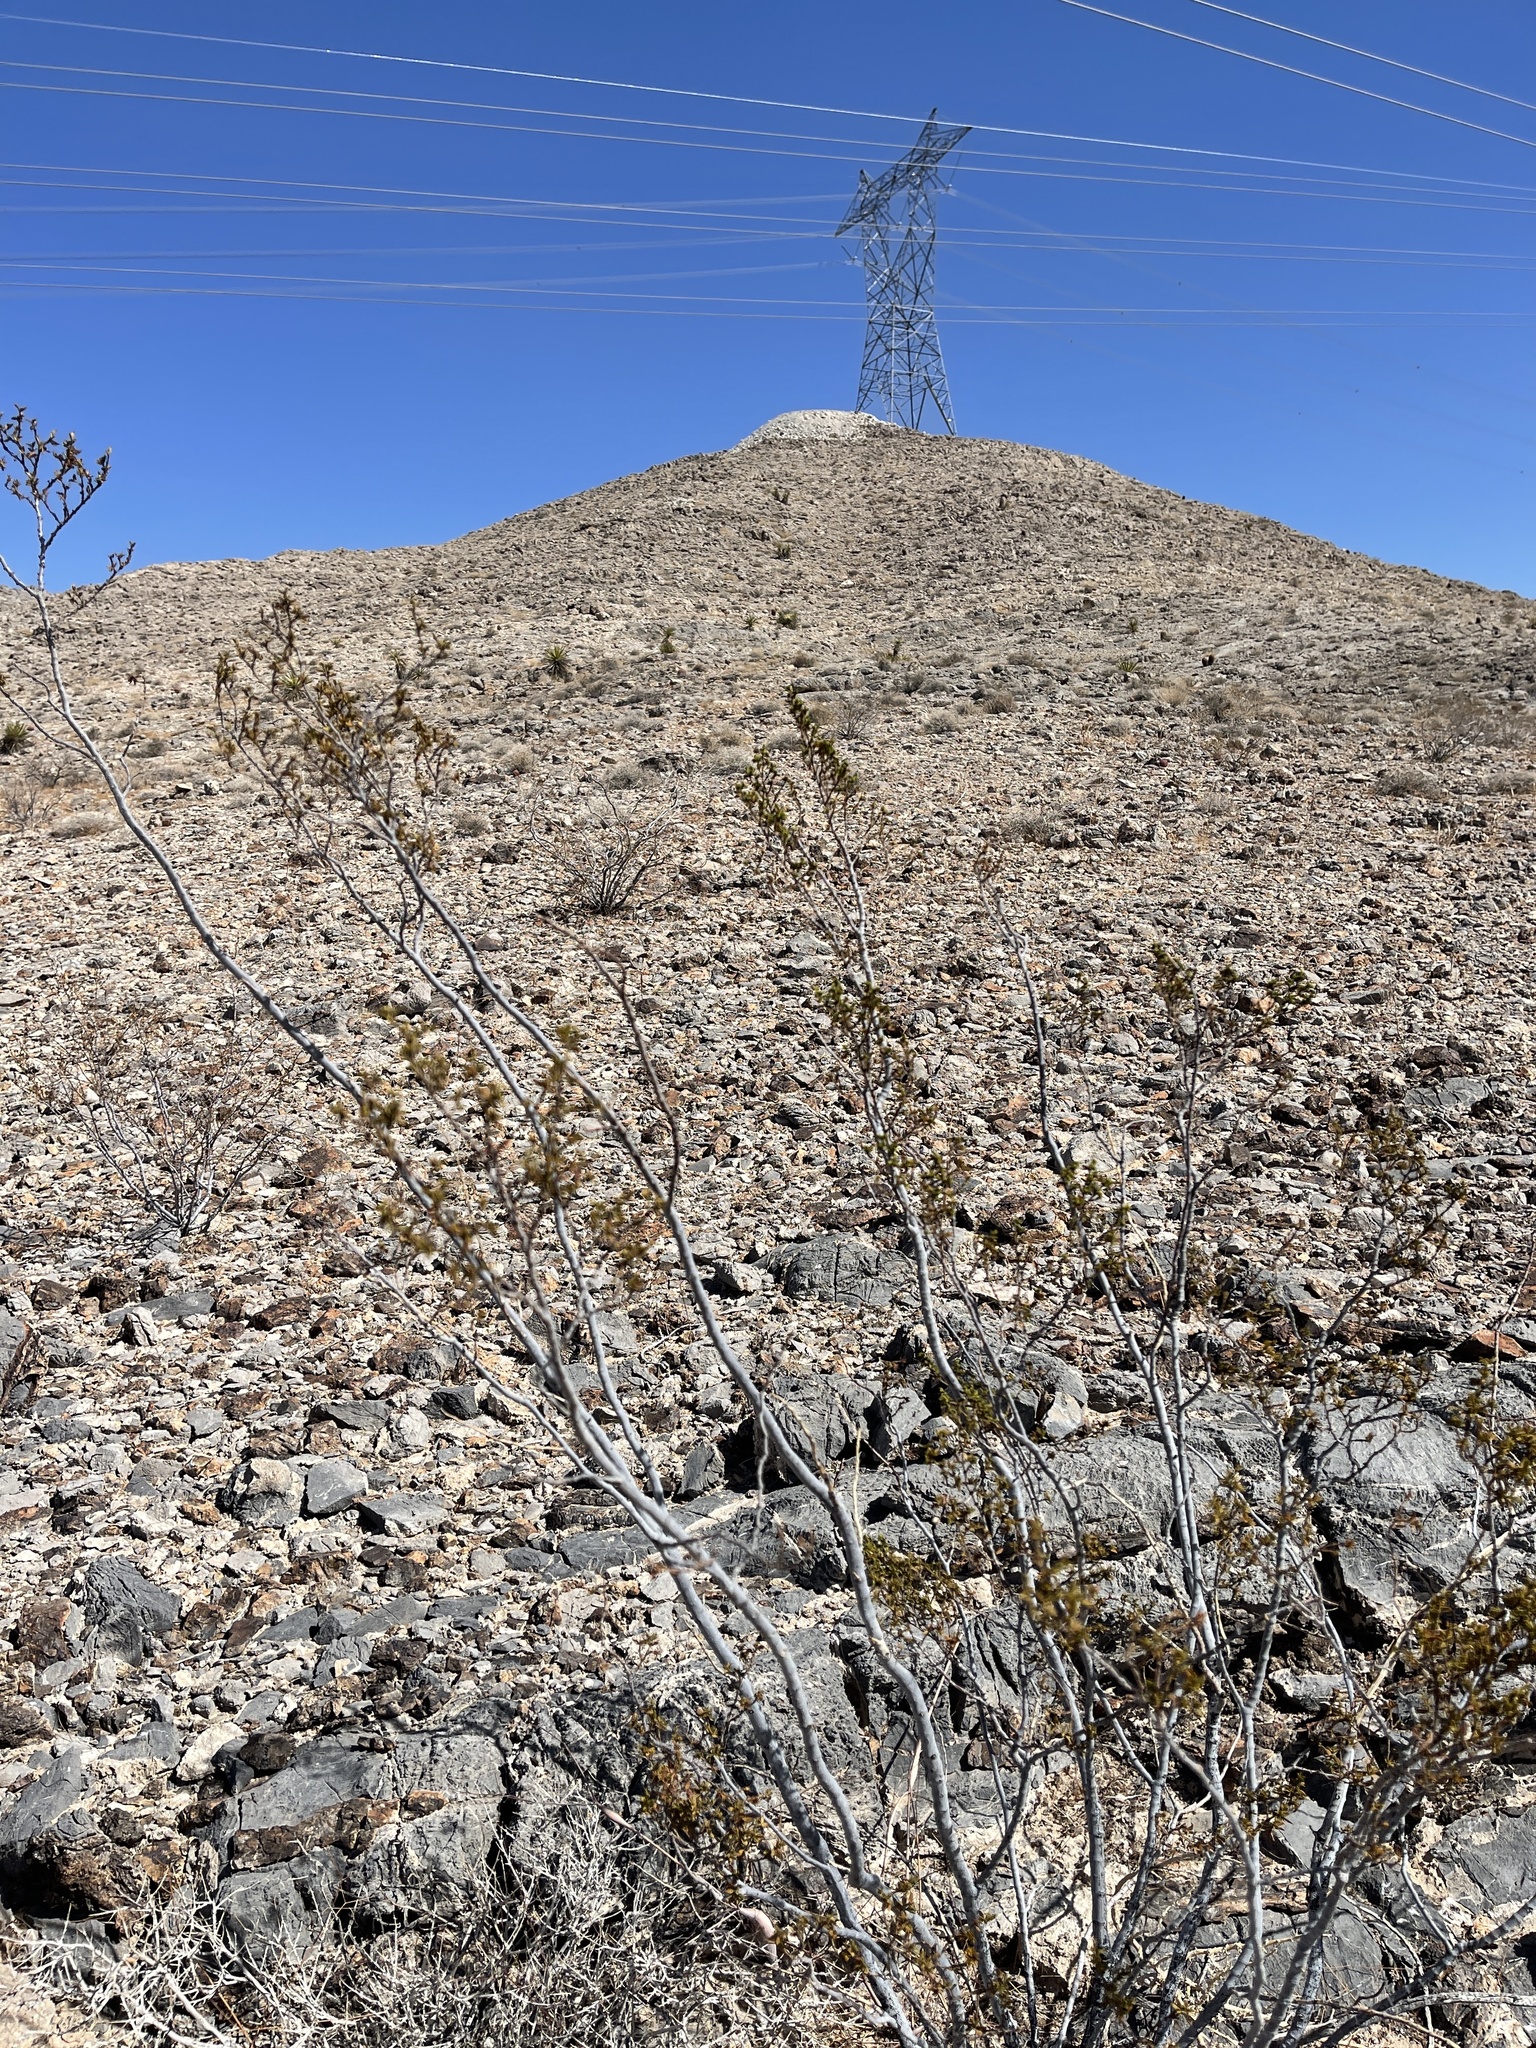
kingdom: Plantae
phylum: Tracheophyta
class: Magnoliopsida
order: Zygophyllales
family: Zygophyllaceae
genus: Larrea
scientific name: Larrea tridentata
